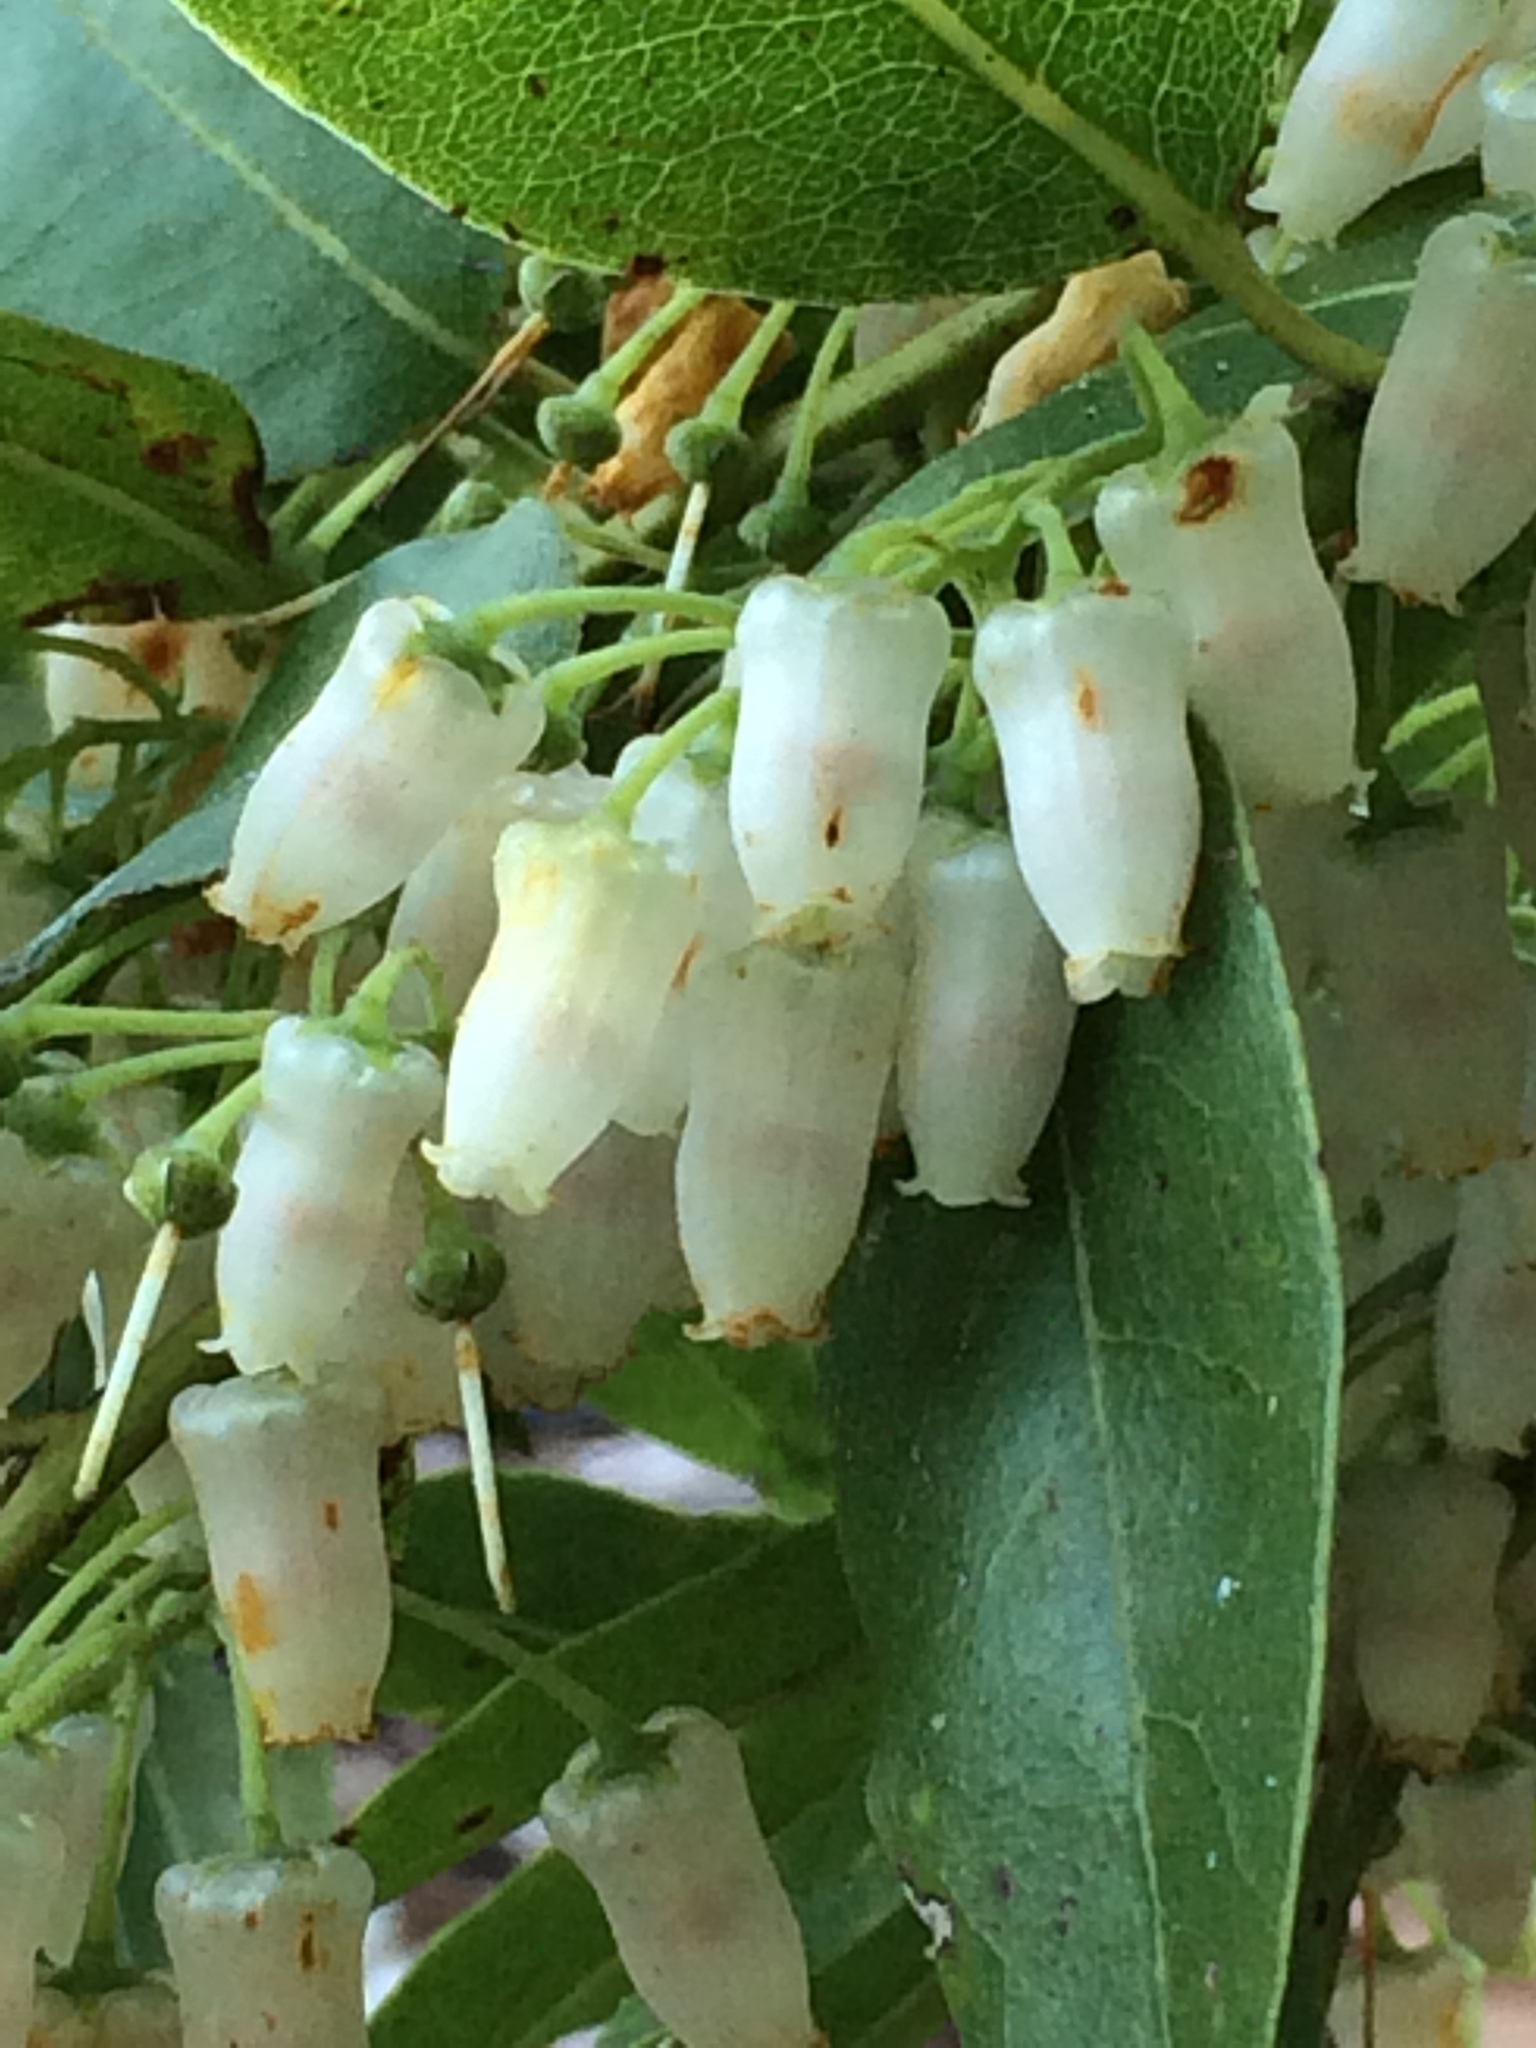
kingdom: Plantae
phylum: Tracheophyta
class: Magnoliopsida
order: Ericales
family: Ericaceae
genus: Agarista
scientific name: Agarista populifolia
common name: Pipeplant
